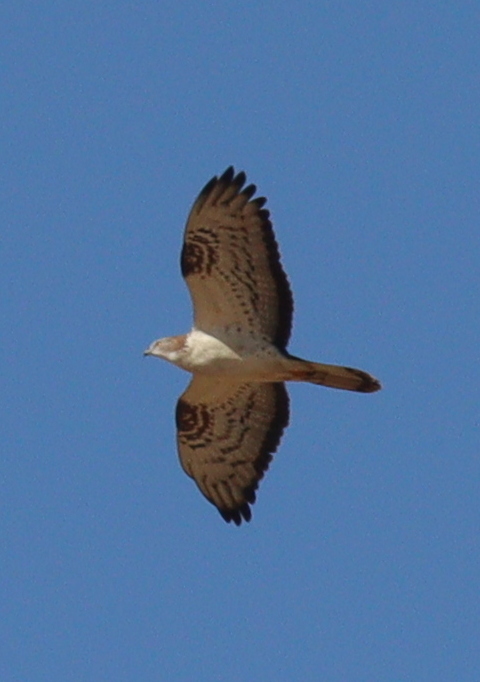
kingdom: Animalia
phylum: Chordata
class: Aves
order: Accipitriformes
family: Accipitridae
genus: Pernis
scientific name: Pernis apivorus
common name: European honey buzzard
